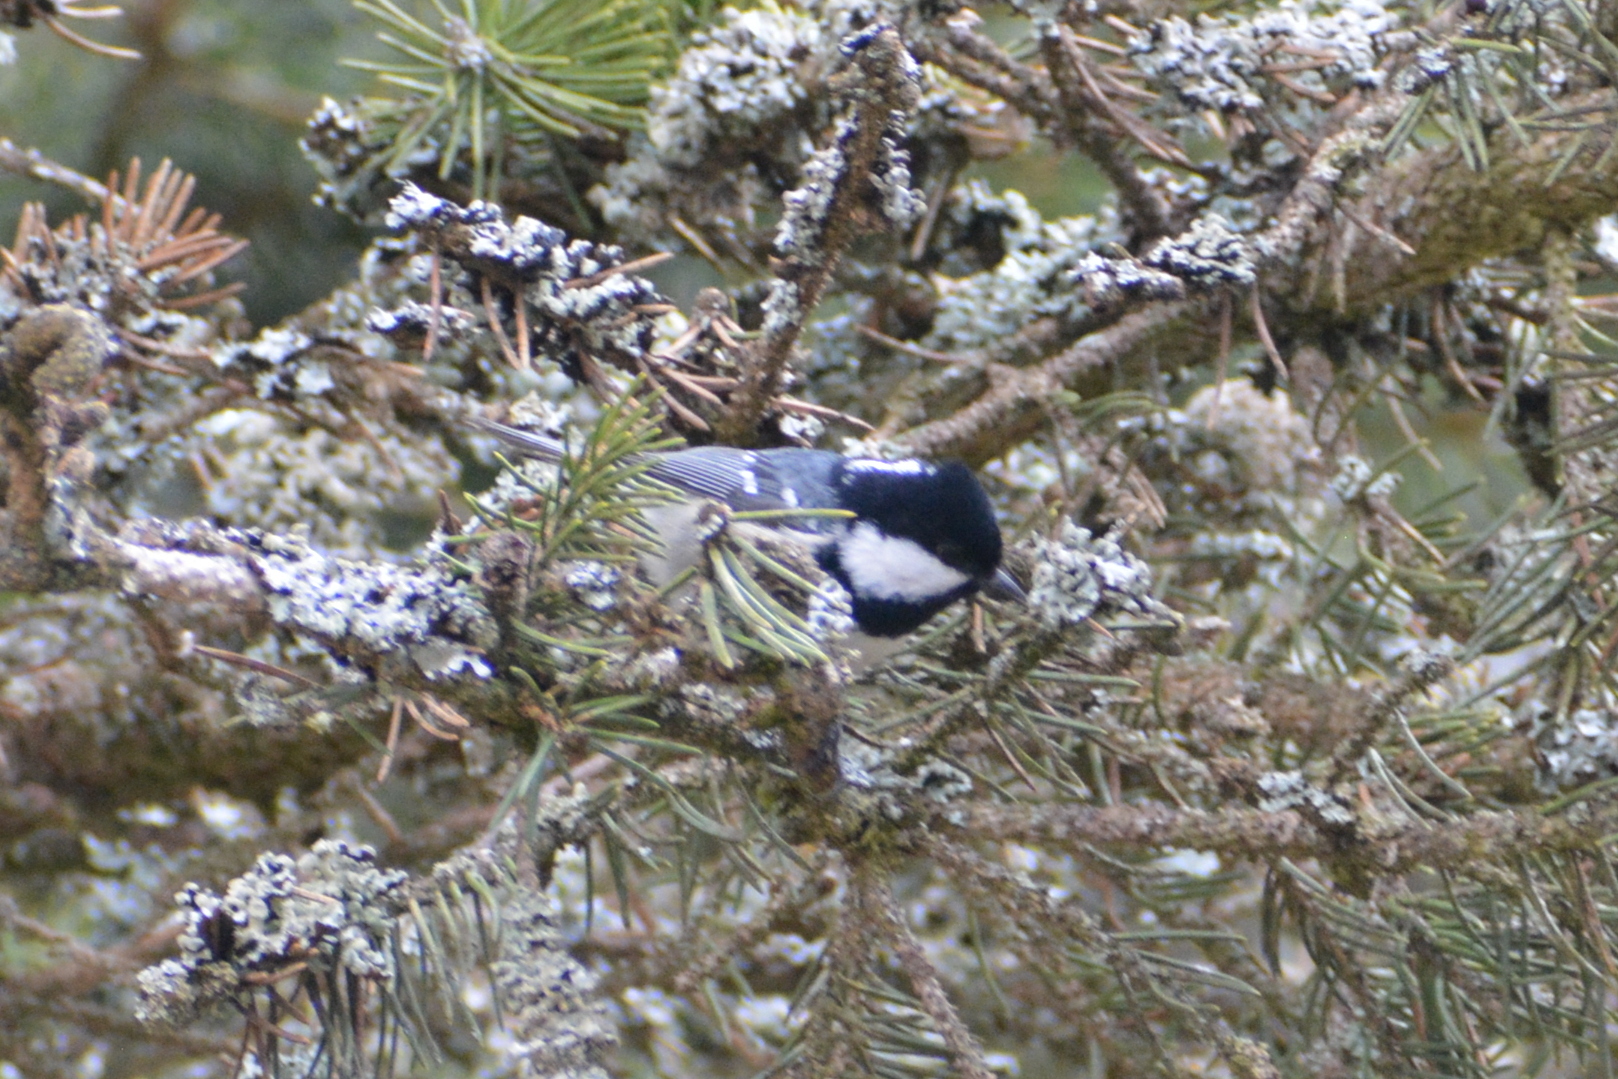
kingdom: Animalia
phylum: Chordata
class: Aves
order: Passeriformes
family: Paridae
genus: Periparus
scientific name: Periparus ater
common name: Coal tit
